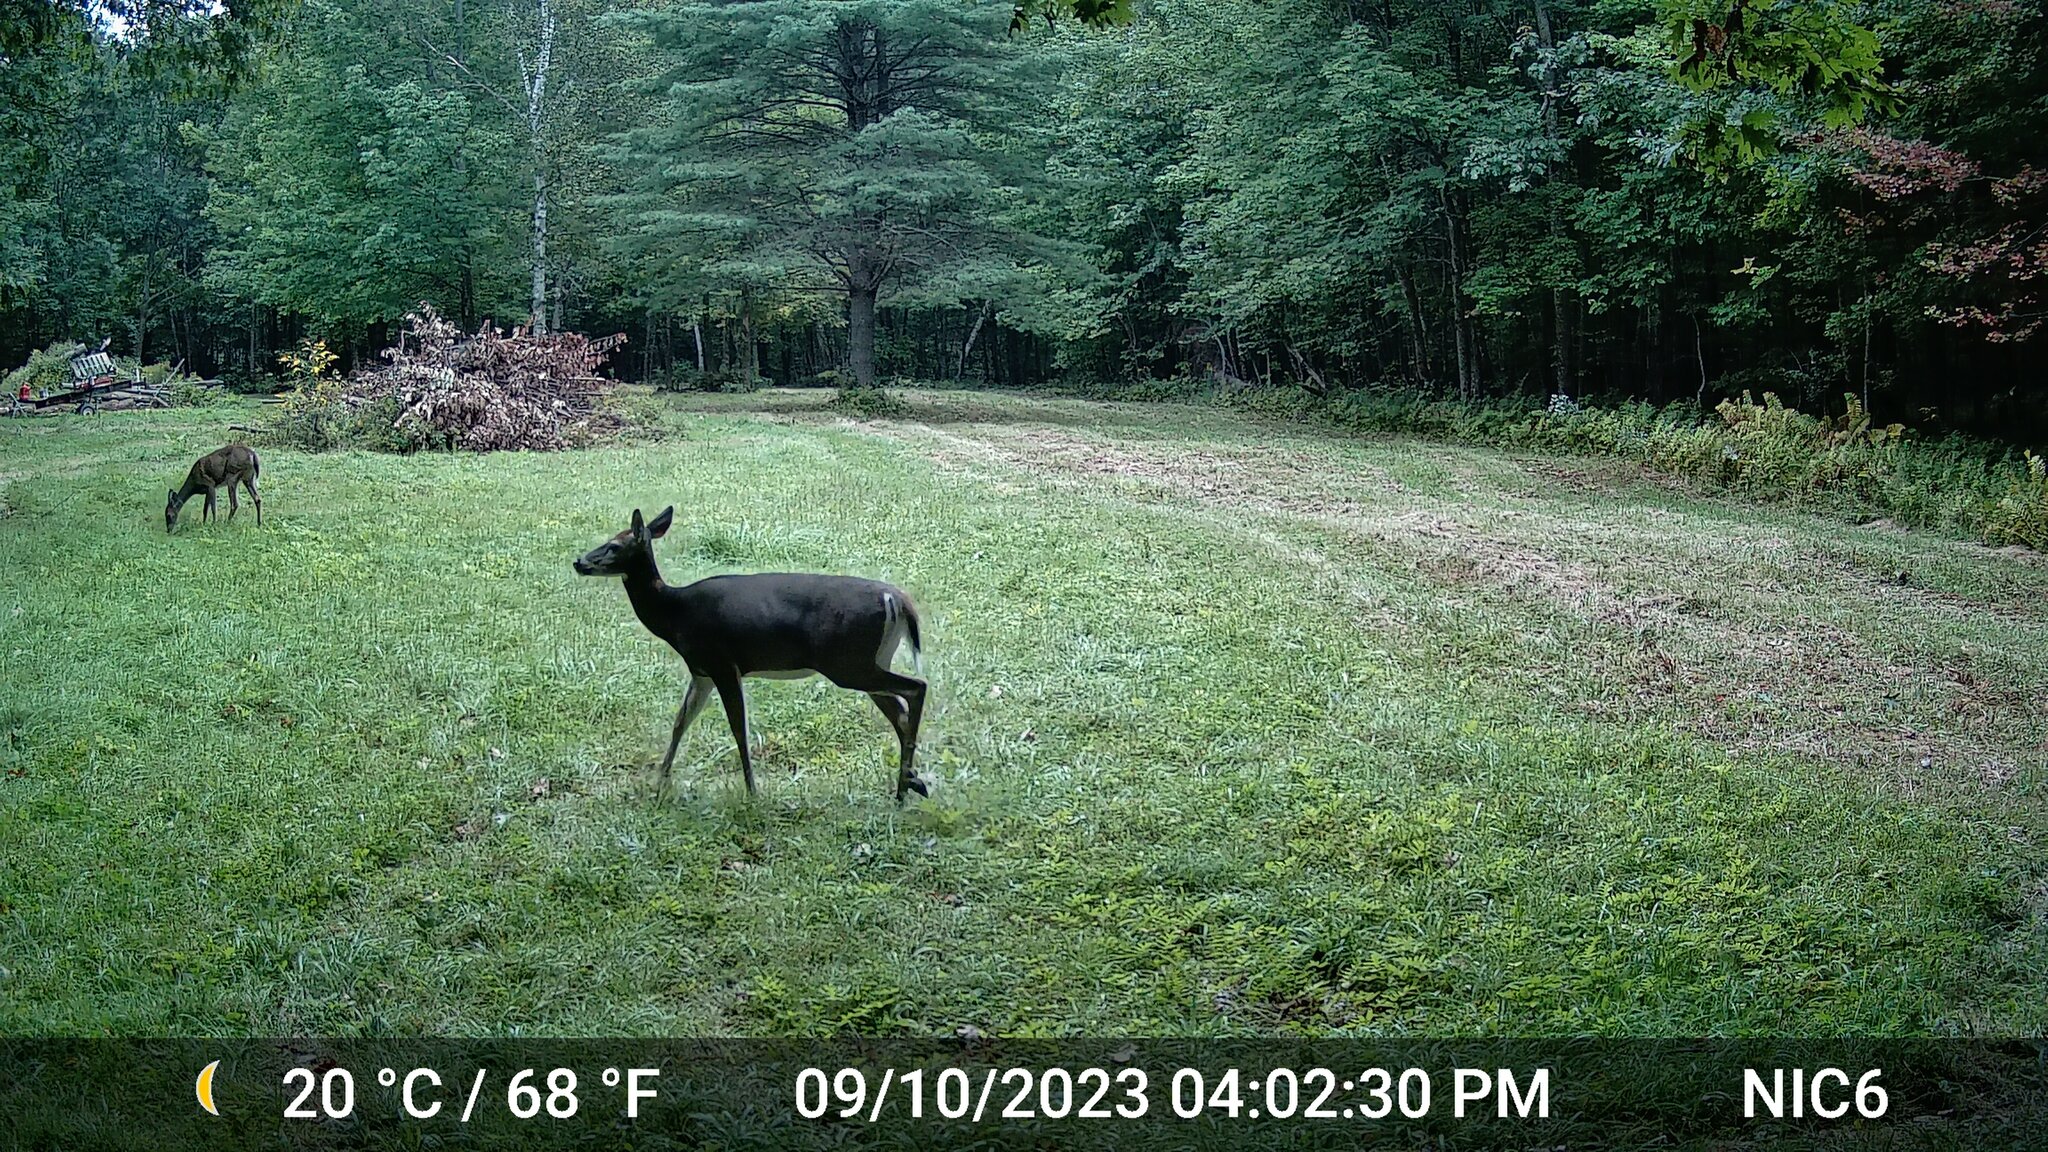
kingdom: Animalia
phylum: Chordata
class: Mammalia
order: Artiodactyla
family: Cervidae
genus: Odocoileus
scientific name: Odocoileus virginianus
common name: White-tailed deer
